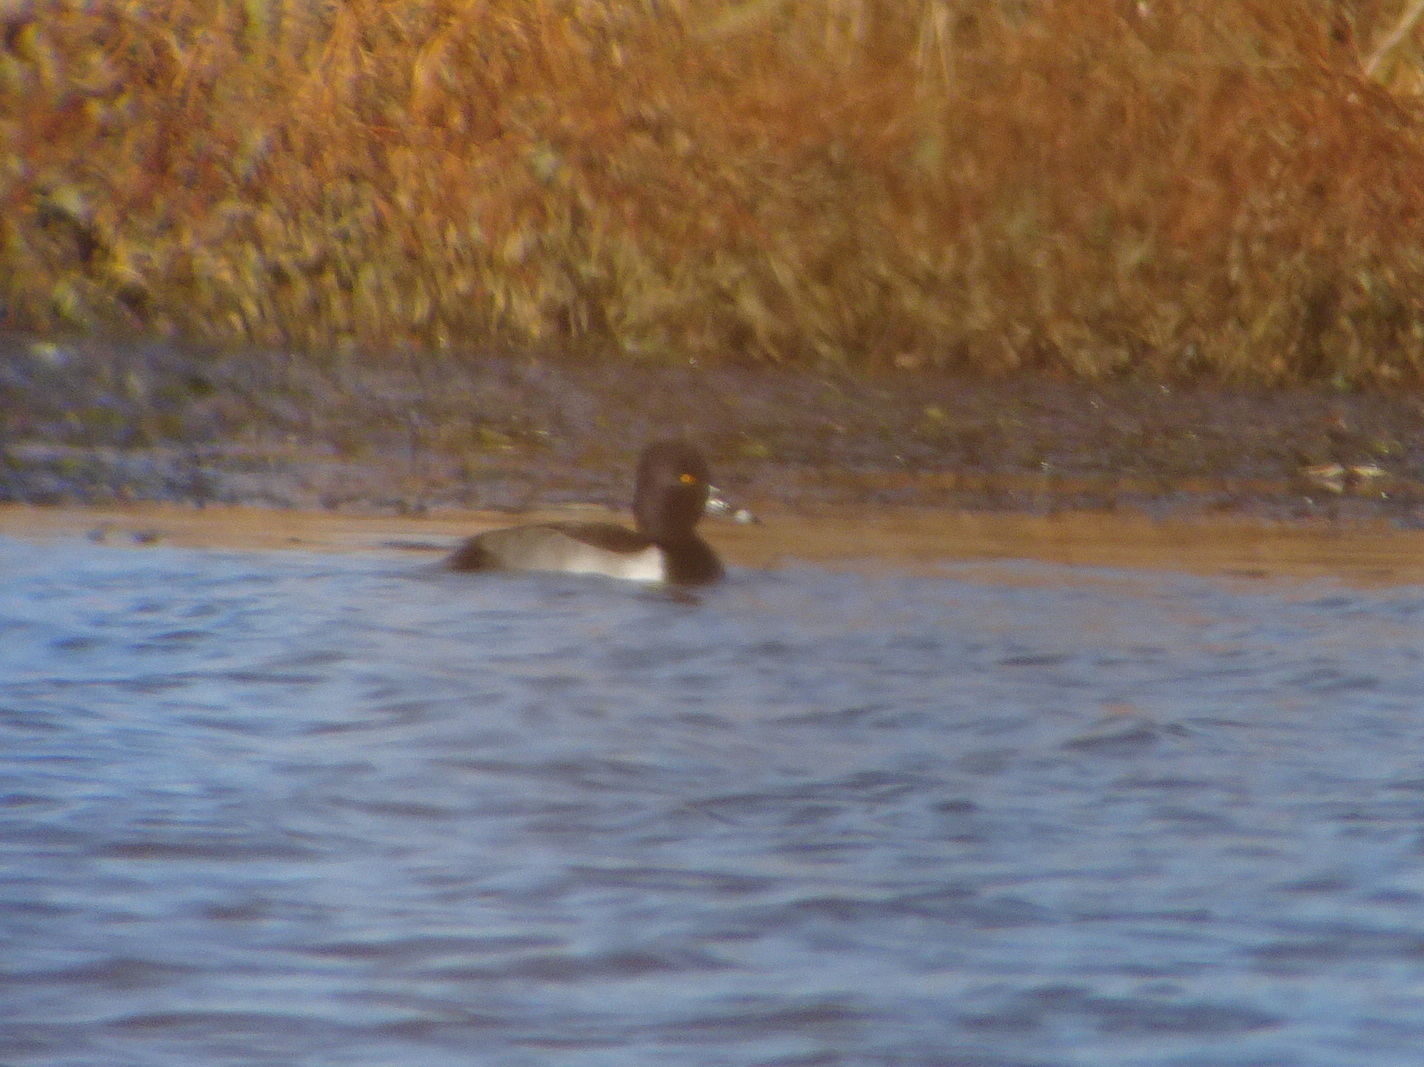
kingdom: Animalia
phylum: Chordata
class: Aves
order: Anseriformes
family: Anatidae
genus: Aythya
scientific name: Aythya collaris
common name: Ring-necked duck
